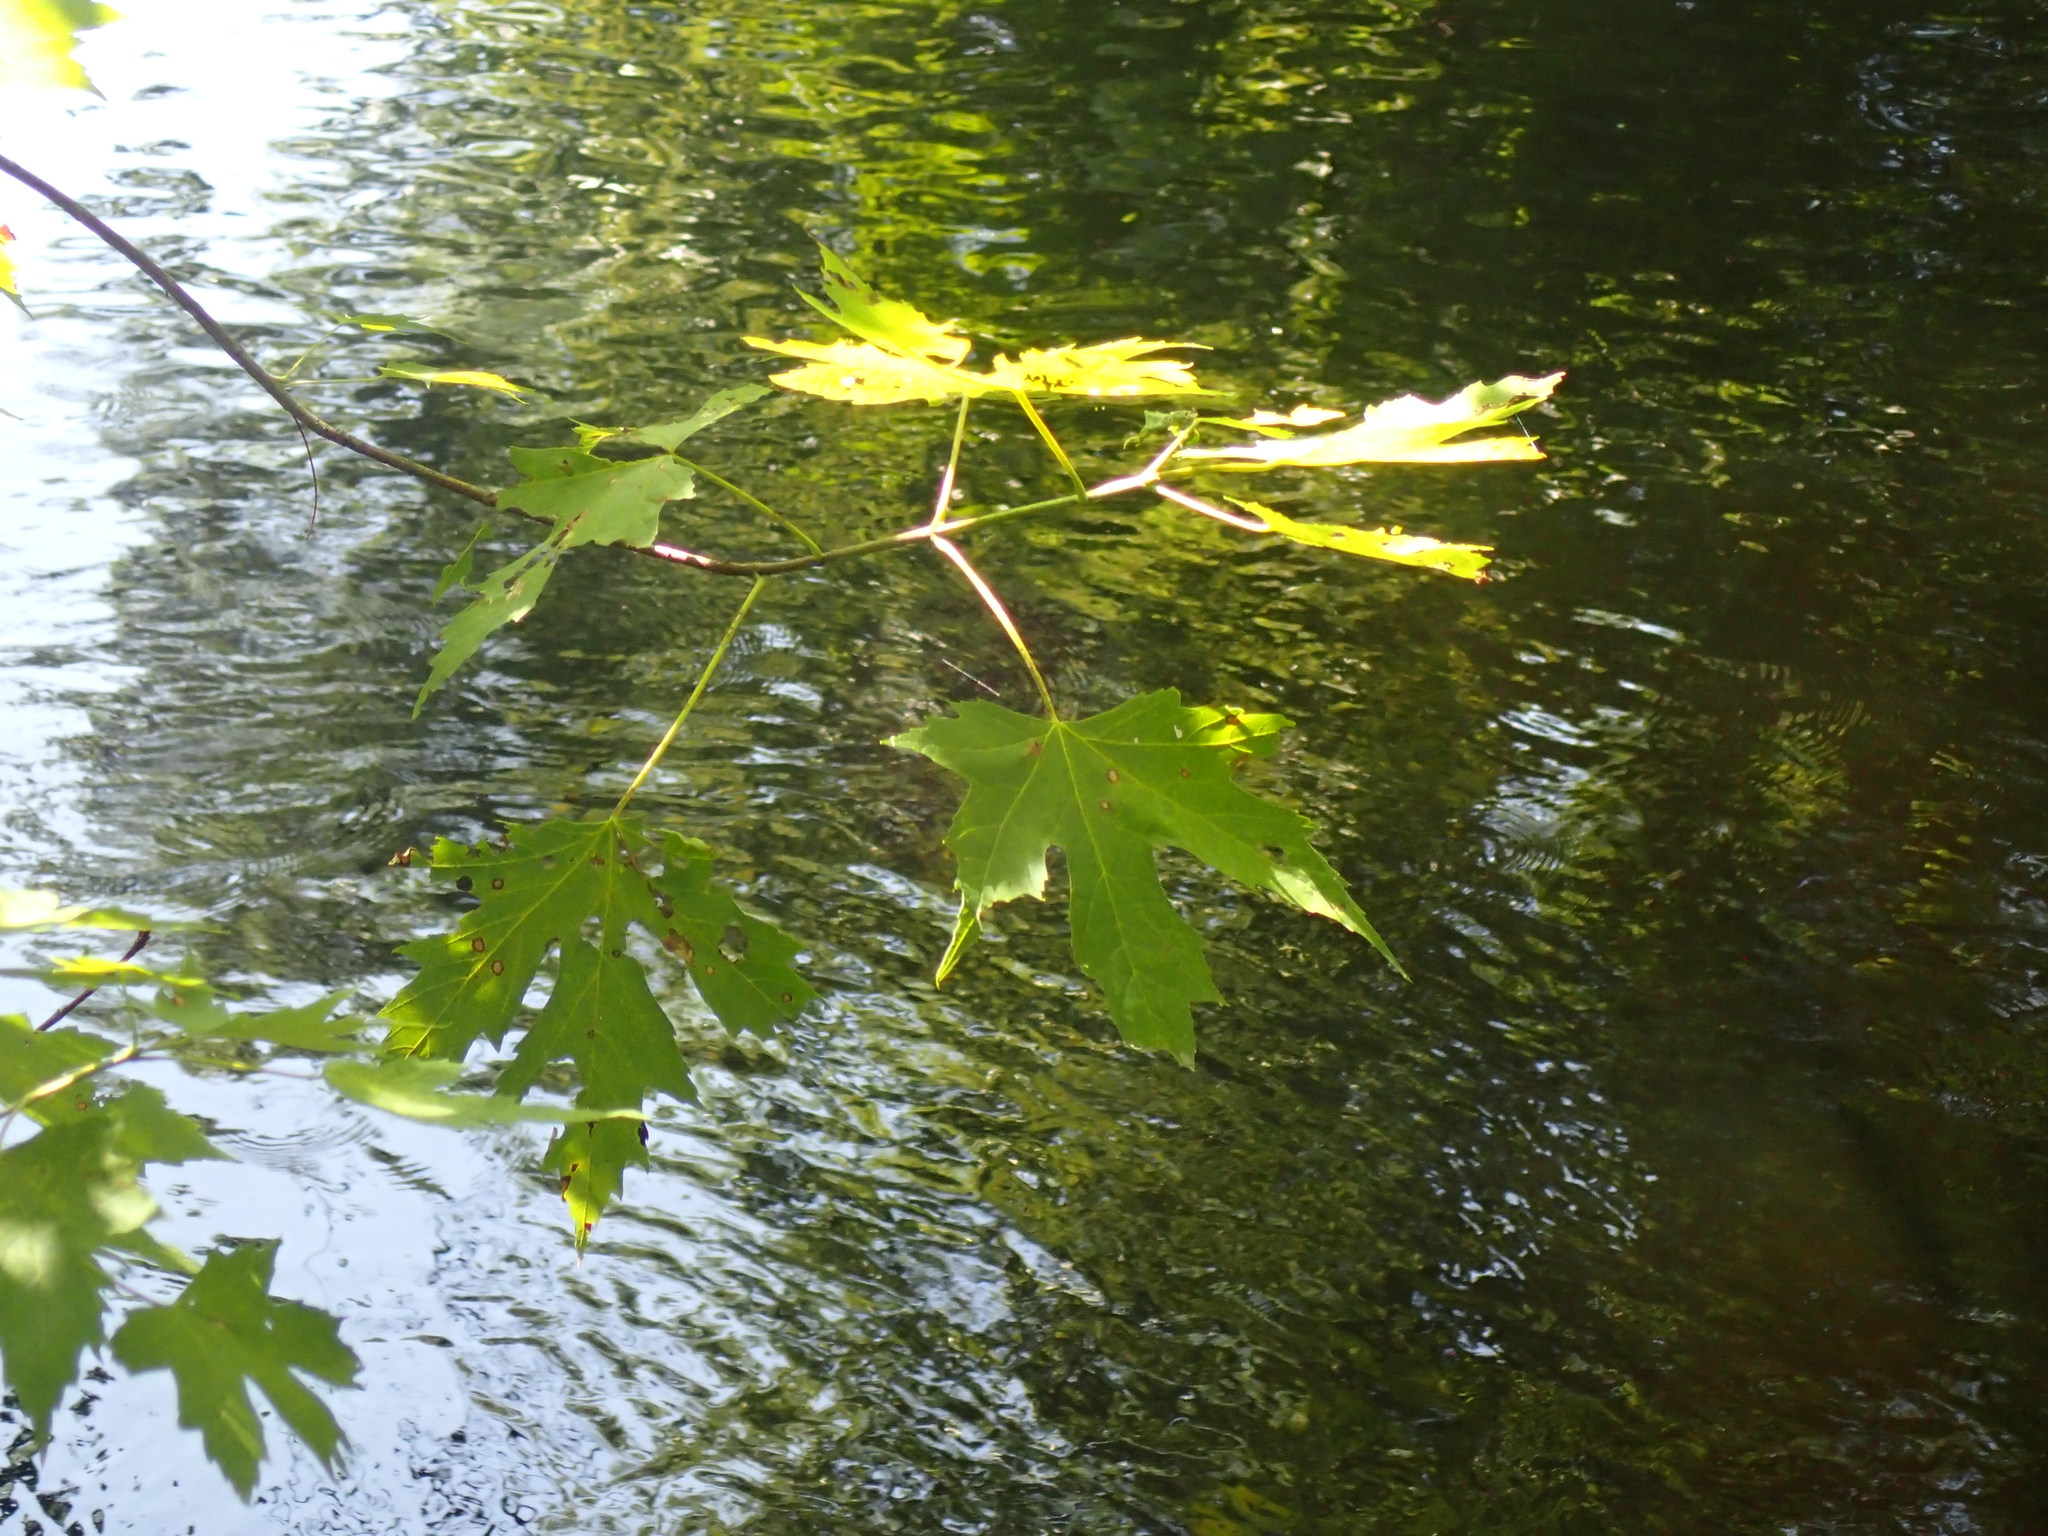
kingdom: Plantae
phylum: Tracheophyta
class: Magnoliopsida
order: Sapindales
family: Sapindaceae
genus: Acer
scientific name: Acer saccharinum
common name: Silver maple
